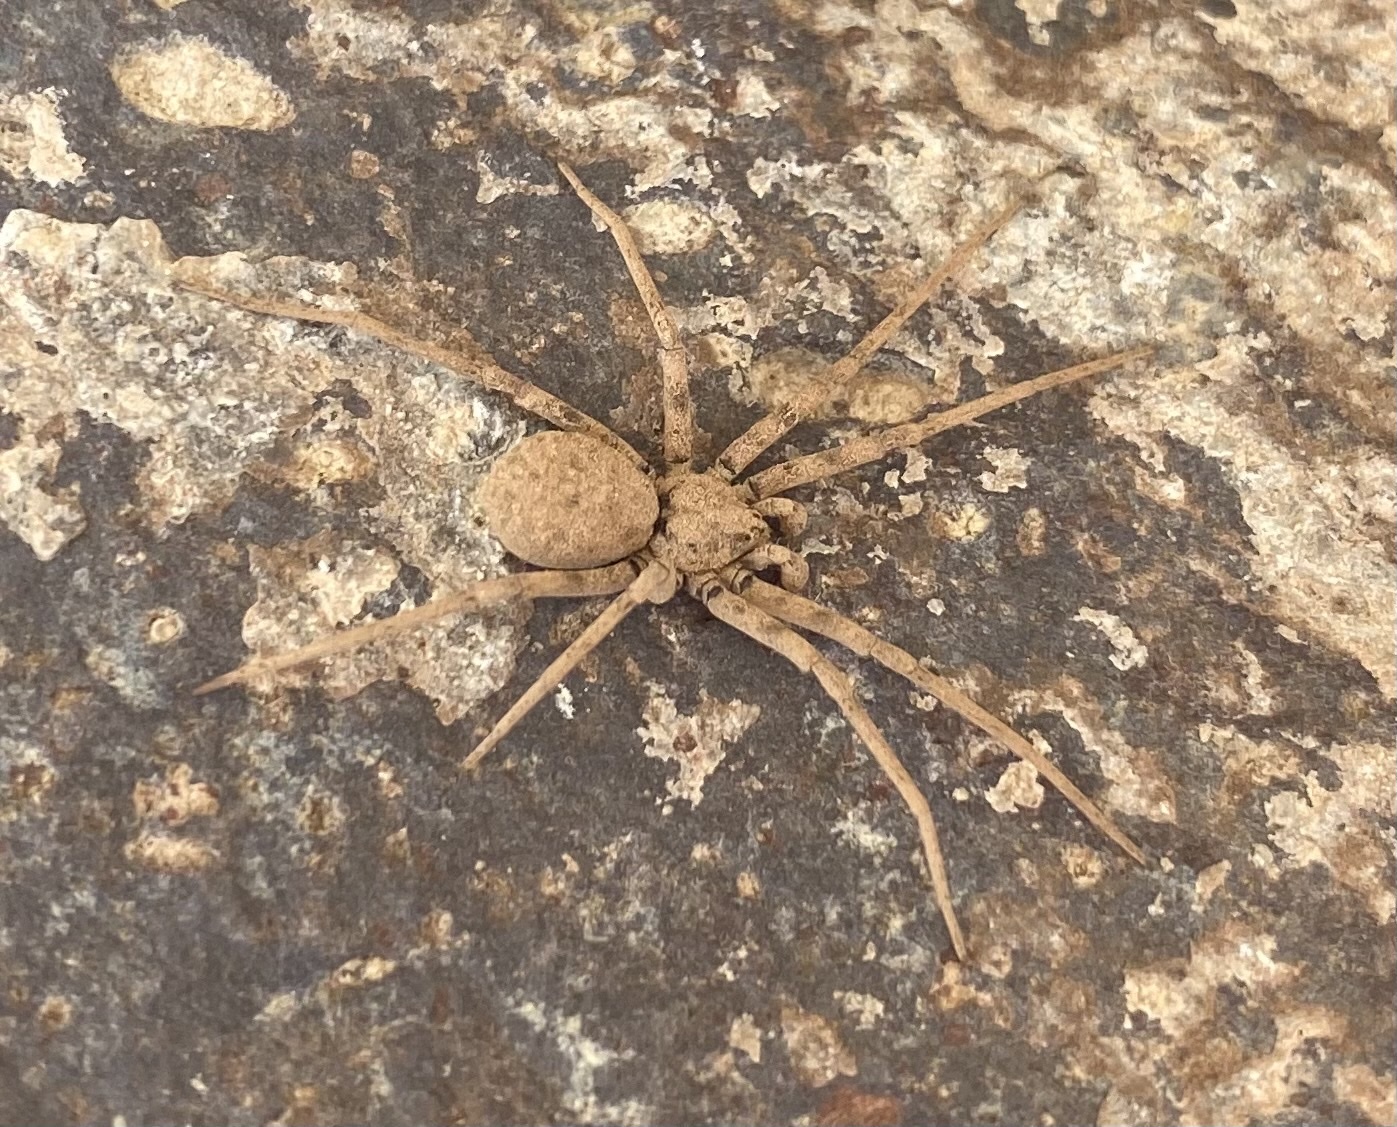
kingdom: Animalia
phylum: Arthropoda
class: Arachnida
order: Araneae
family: Homalonychidae
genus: Homalonychus
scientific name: Homalonychus selenopoides
